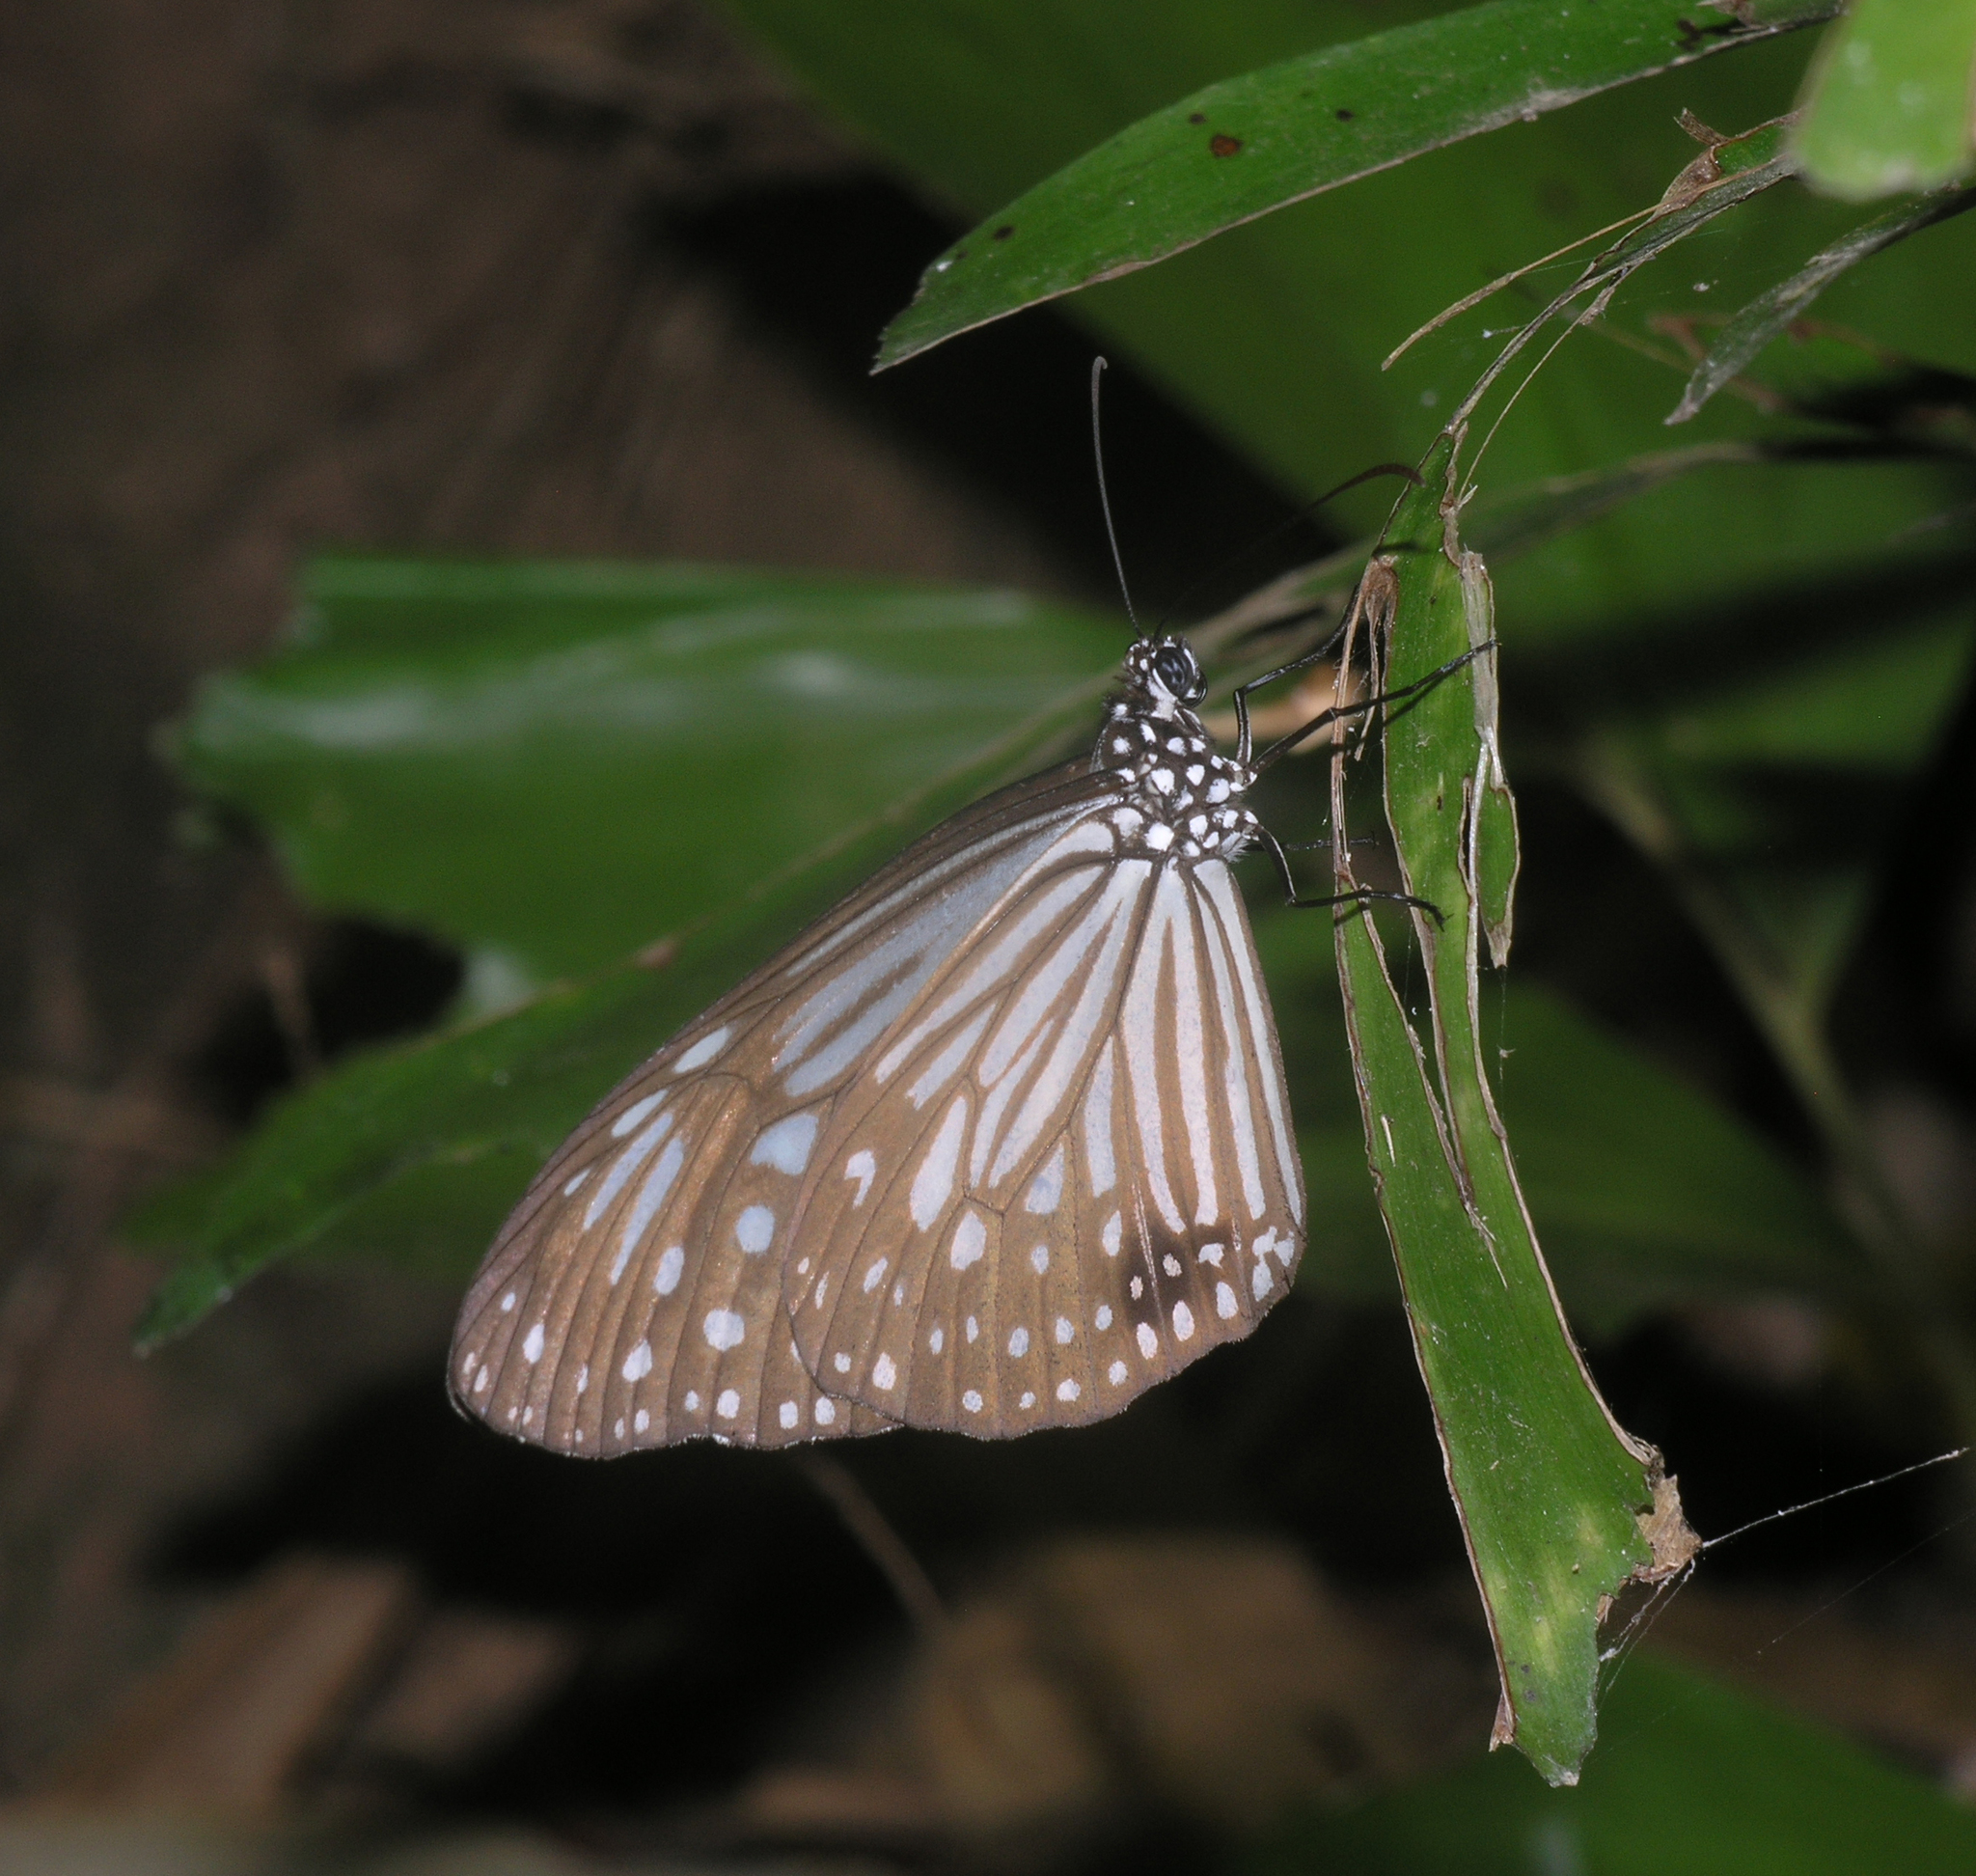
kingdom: Animalia
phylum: Arthropoda
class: Insecta
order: Lepidoptera
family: Nymphalidae
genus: Parantica
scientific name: Parantica agleoides
